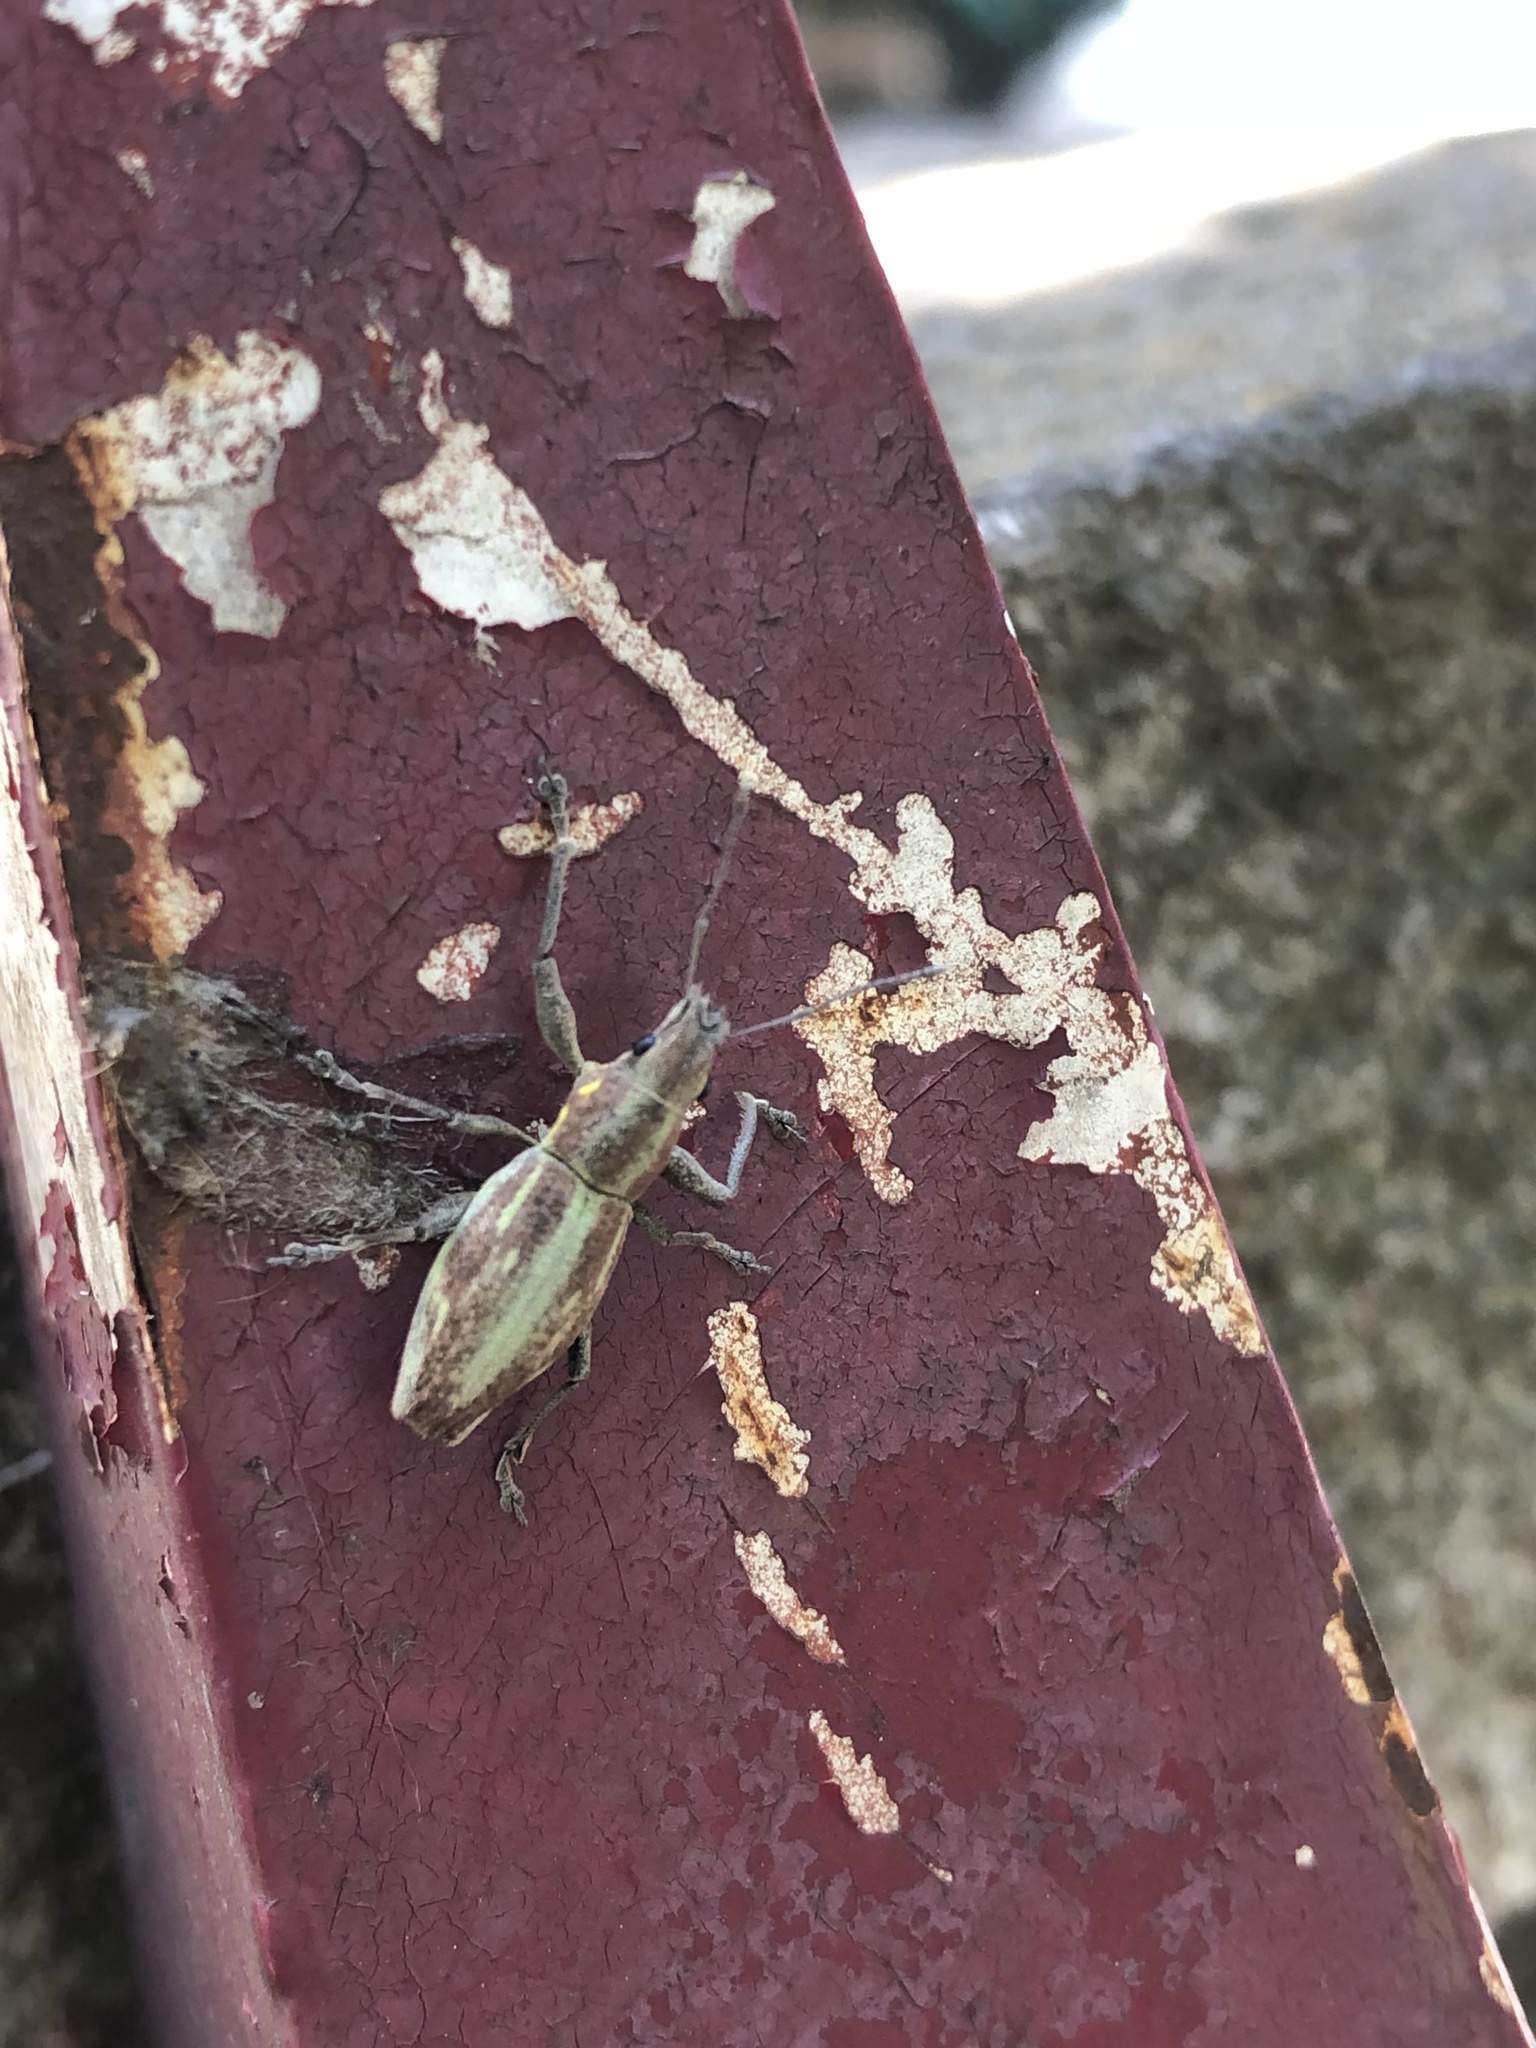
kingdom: Animalia
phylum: Arthropoda
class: Insecta
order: Coleoptera
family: Curculionidae
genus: Naupactus
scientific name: Naupactus xanthographus
